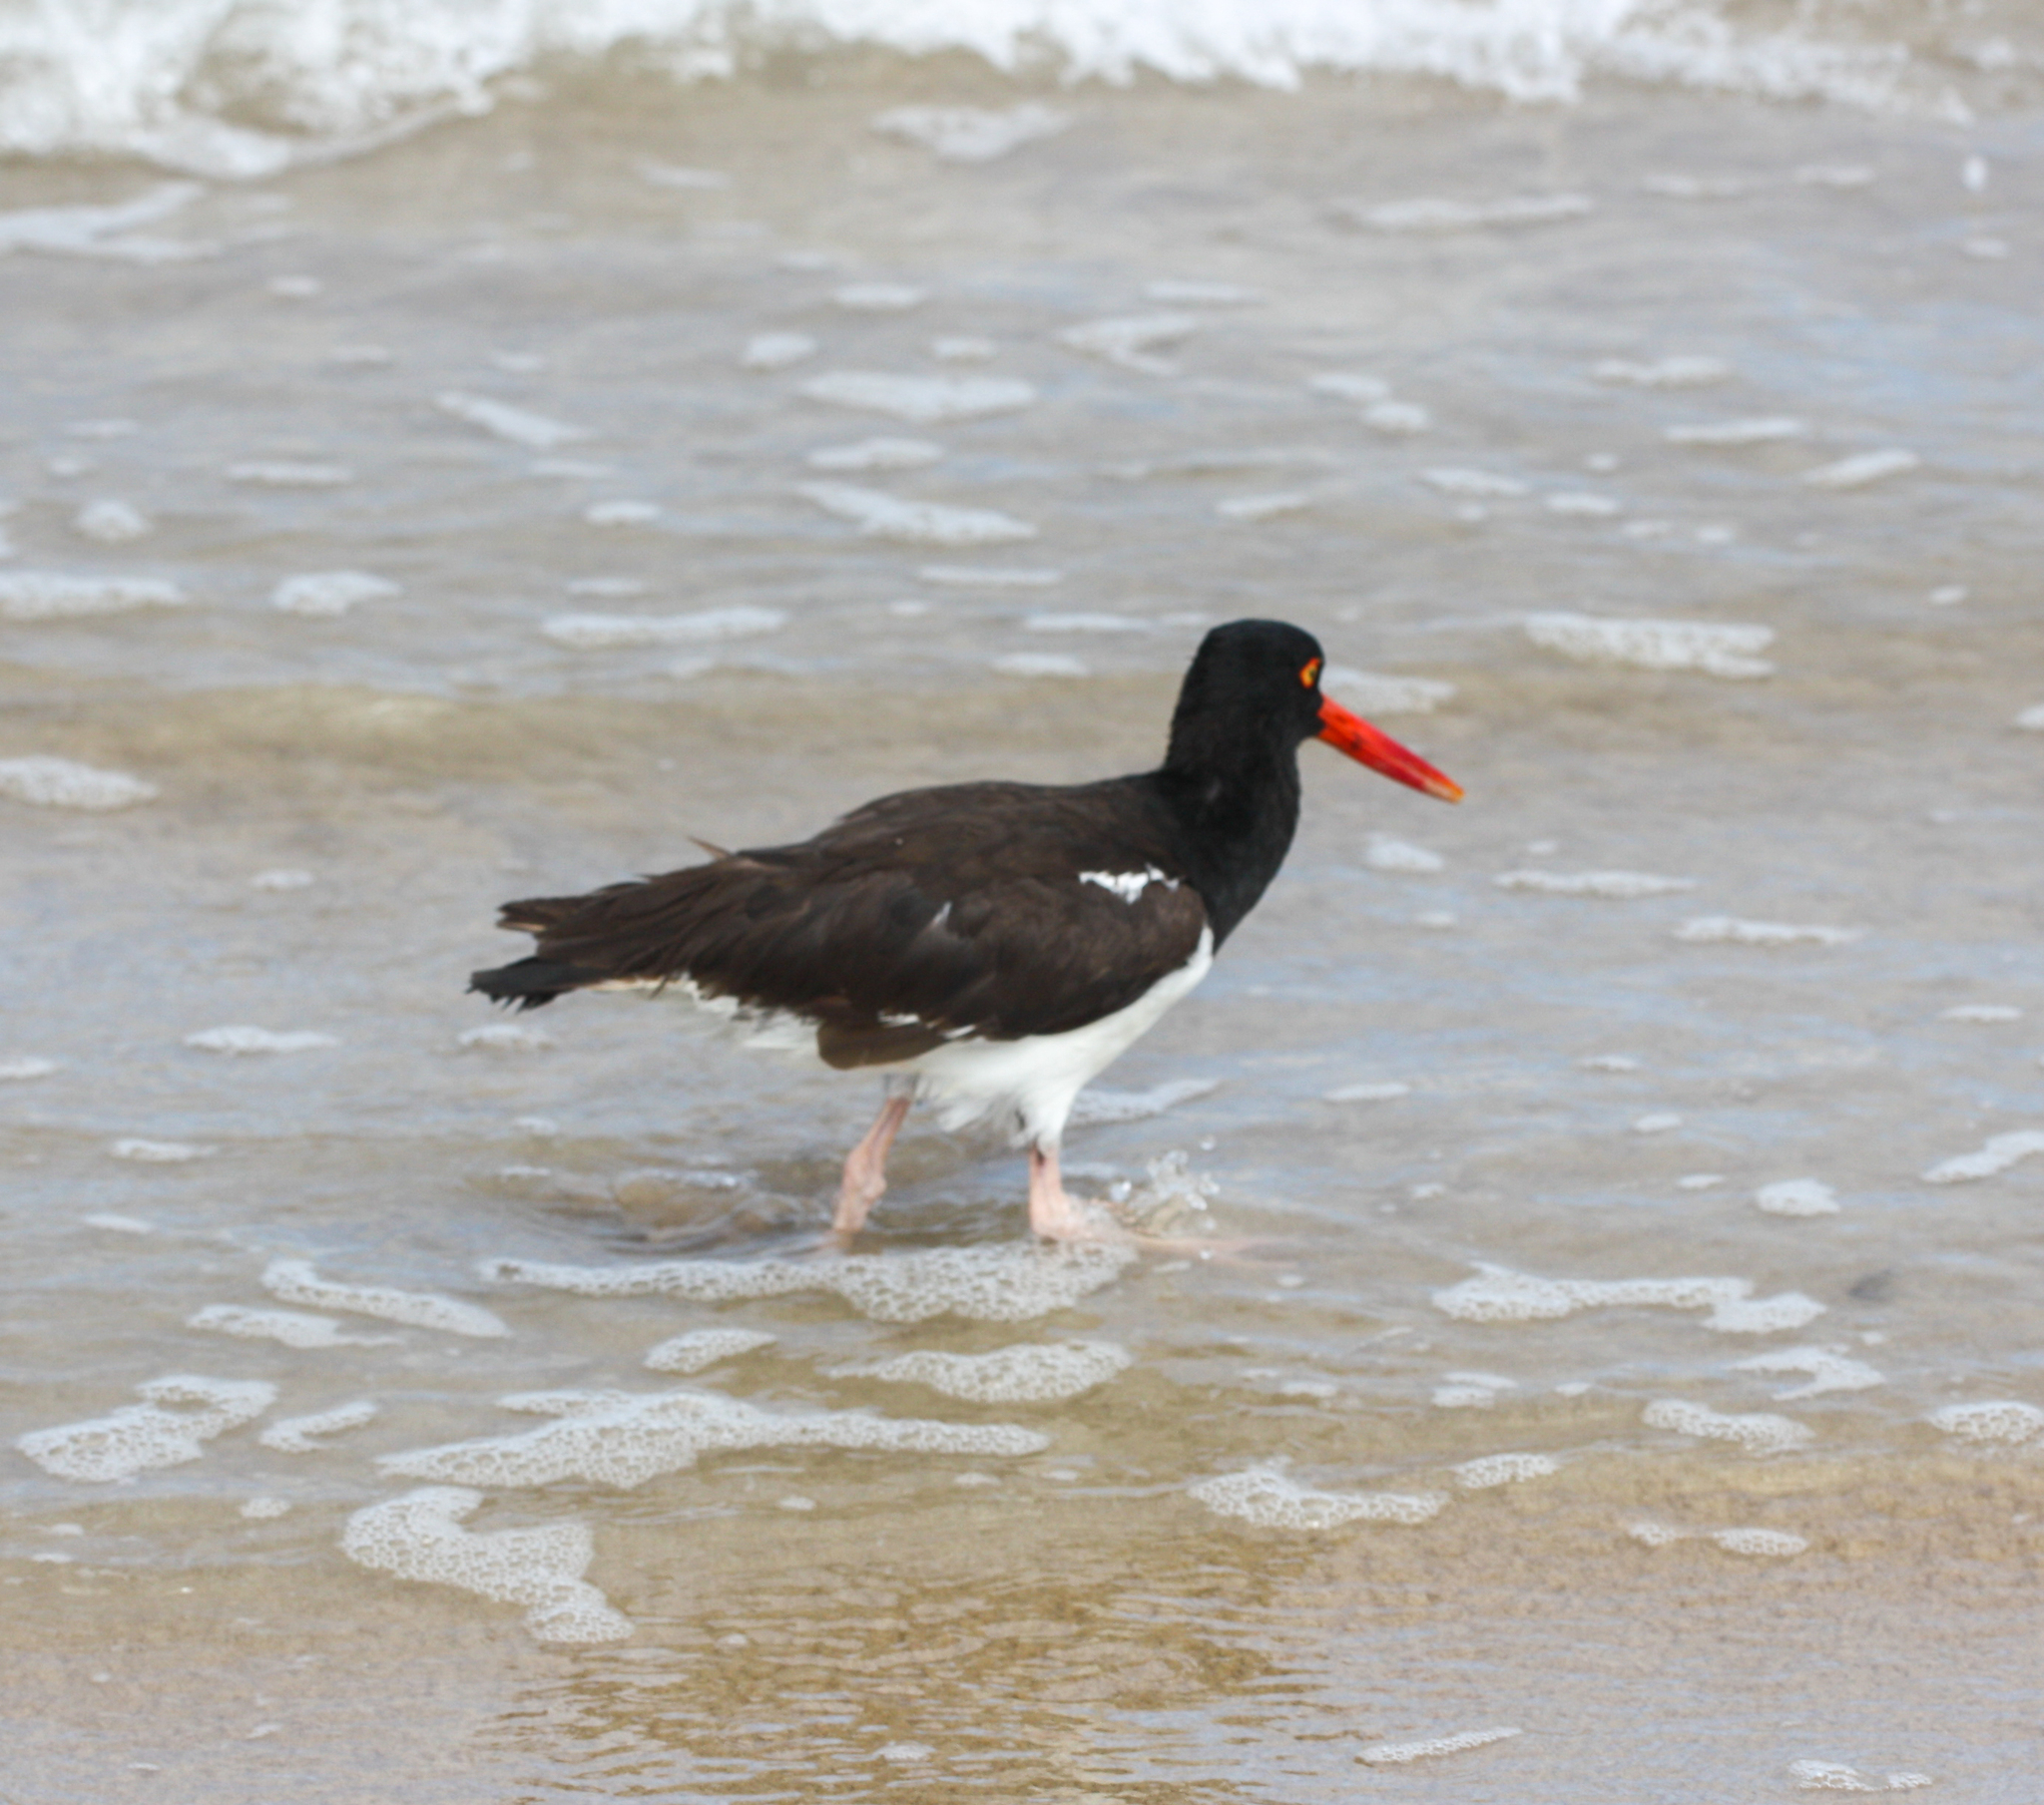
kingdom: Animalia
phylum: Chordata
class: Aves
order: Charadriiformes
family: Haematopodidae
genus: Haematopus
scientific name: Haematopus palliatus
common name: American oystercatcher
